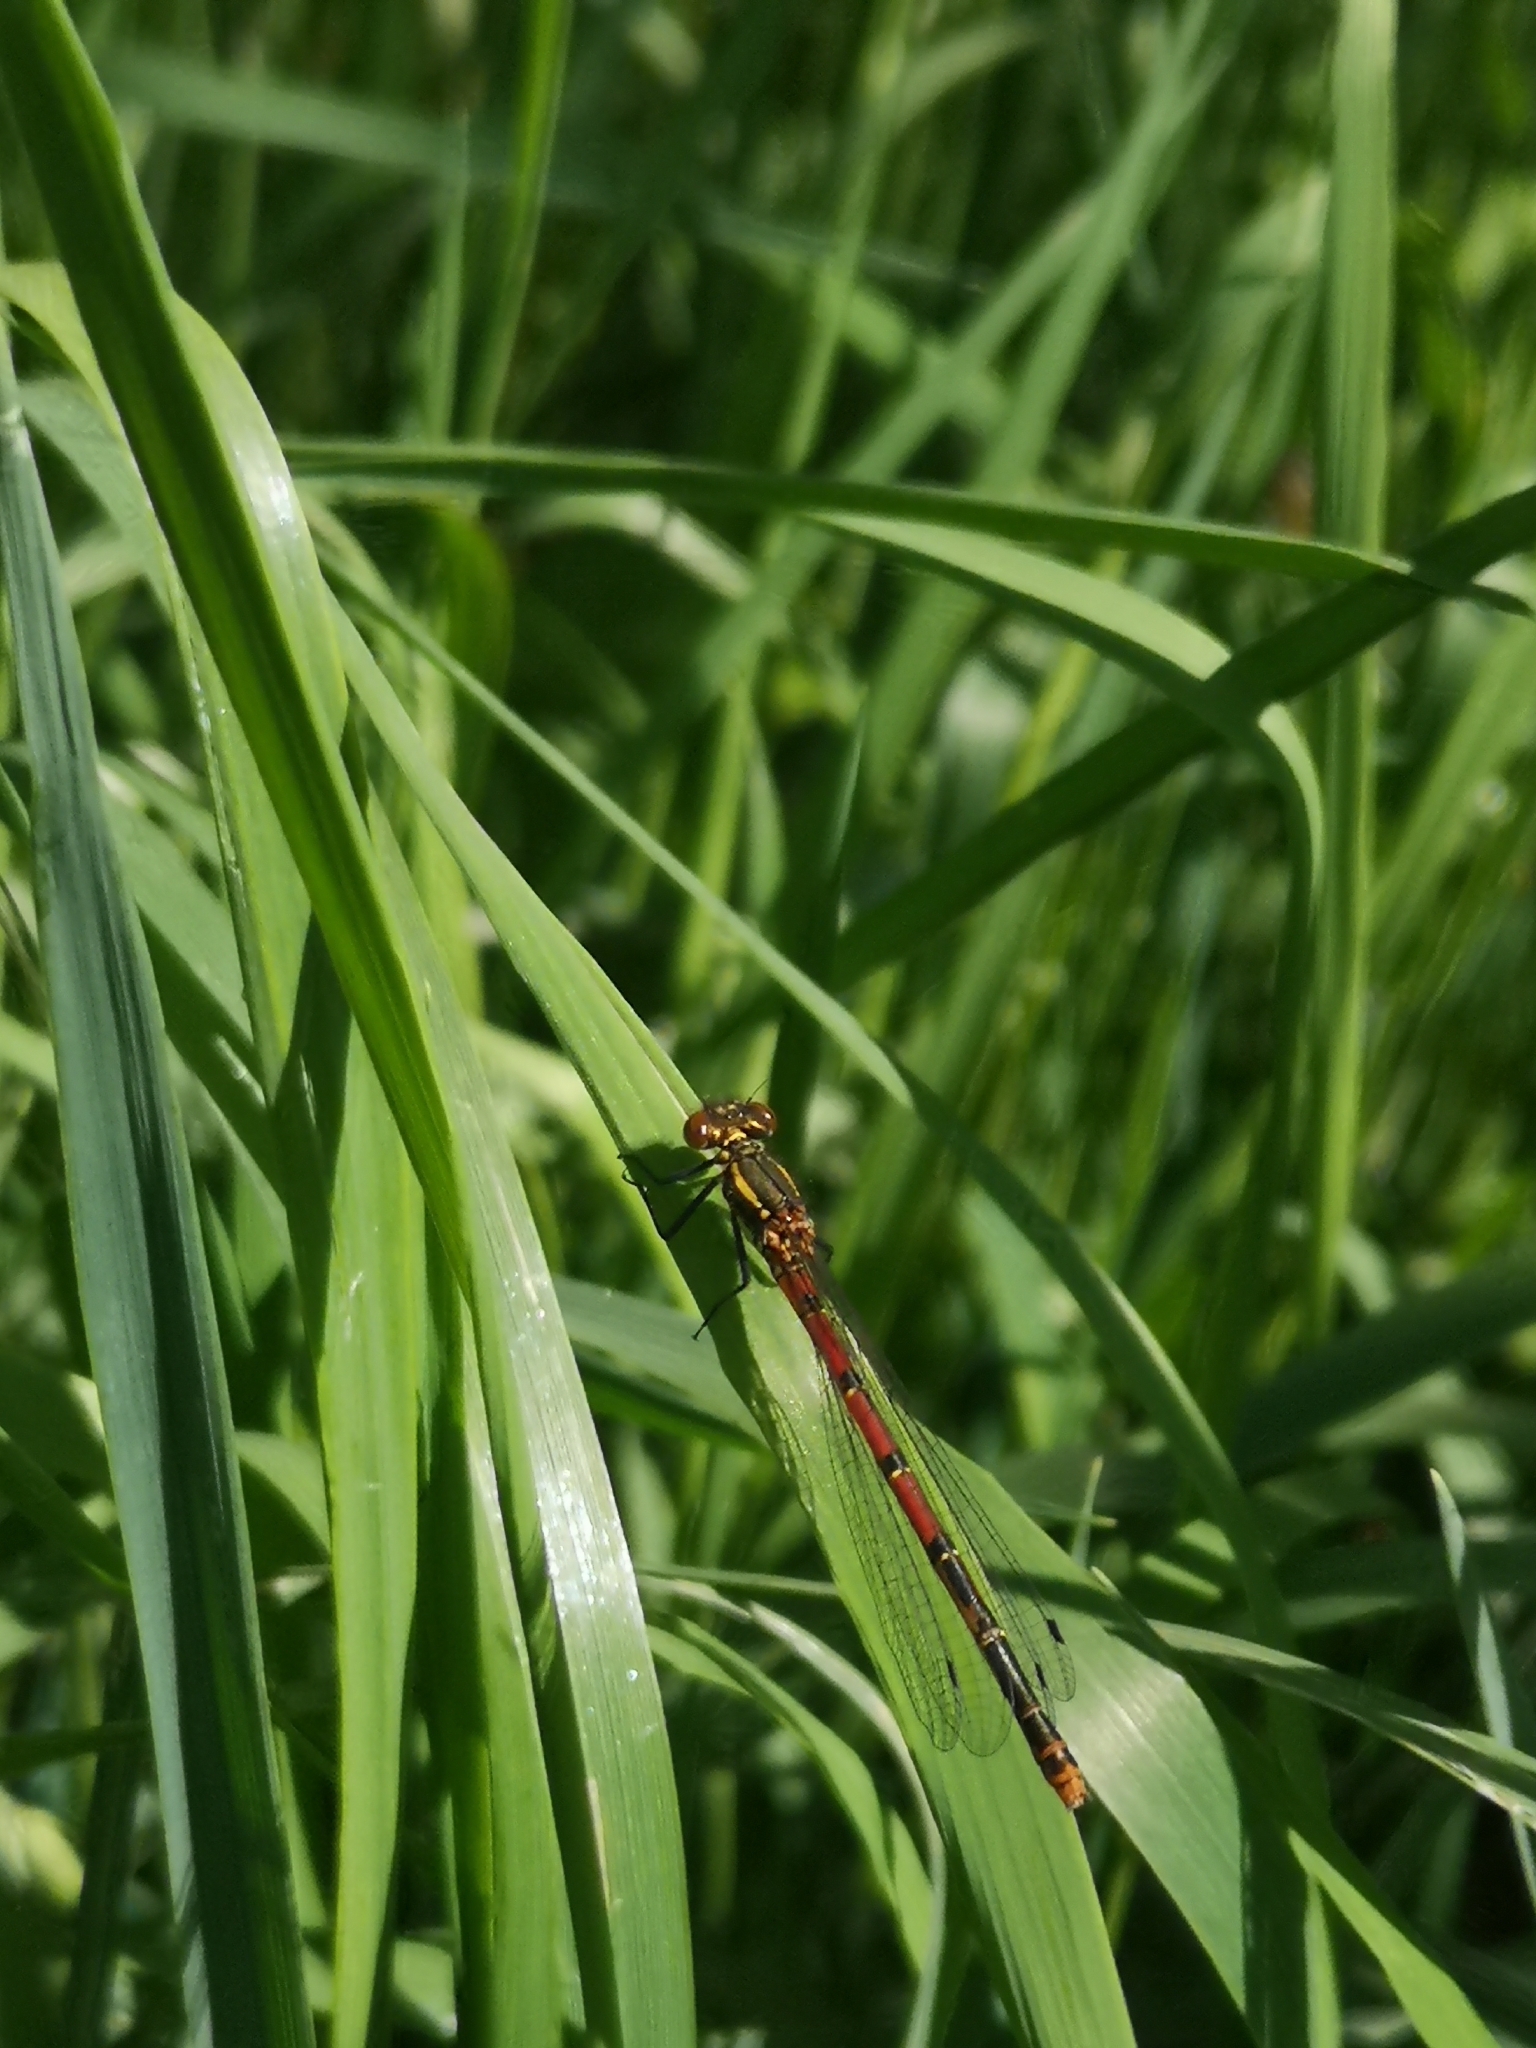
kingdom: Animalia
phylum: Arthropoda
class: Insecta
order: Odonata
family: Coenagrionidae
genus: Pyrrhosoma
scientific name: Pyrrhosoma nymphula
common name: Large red damsel
